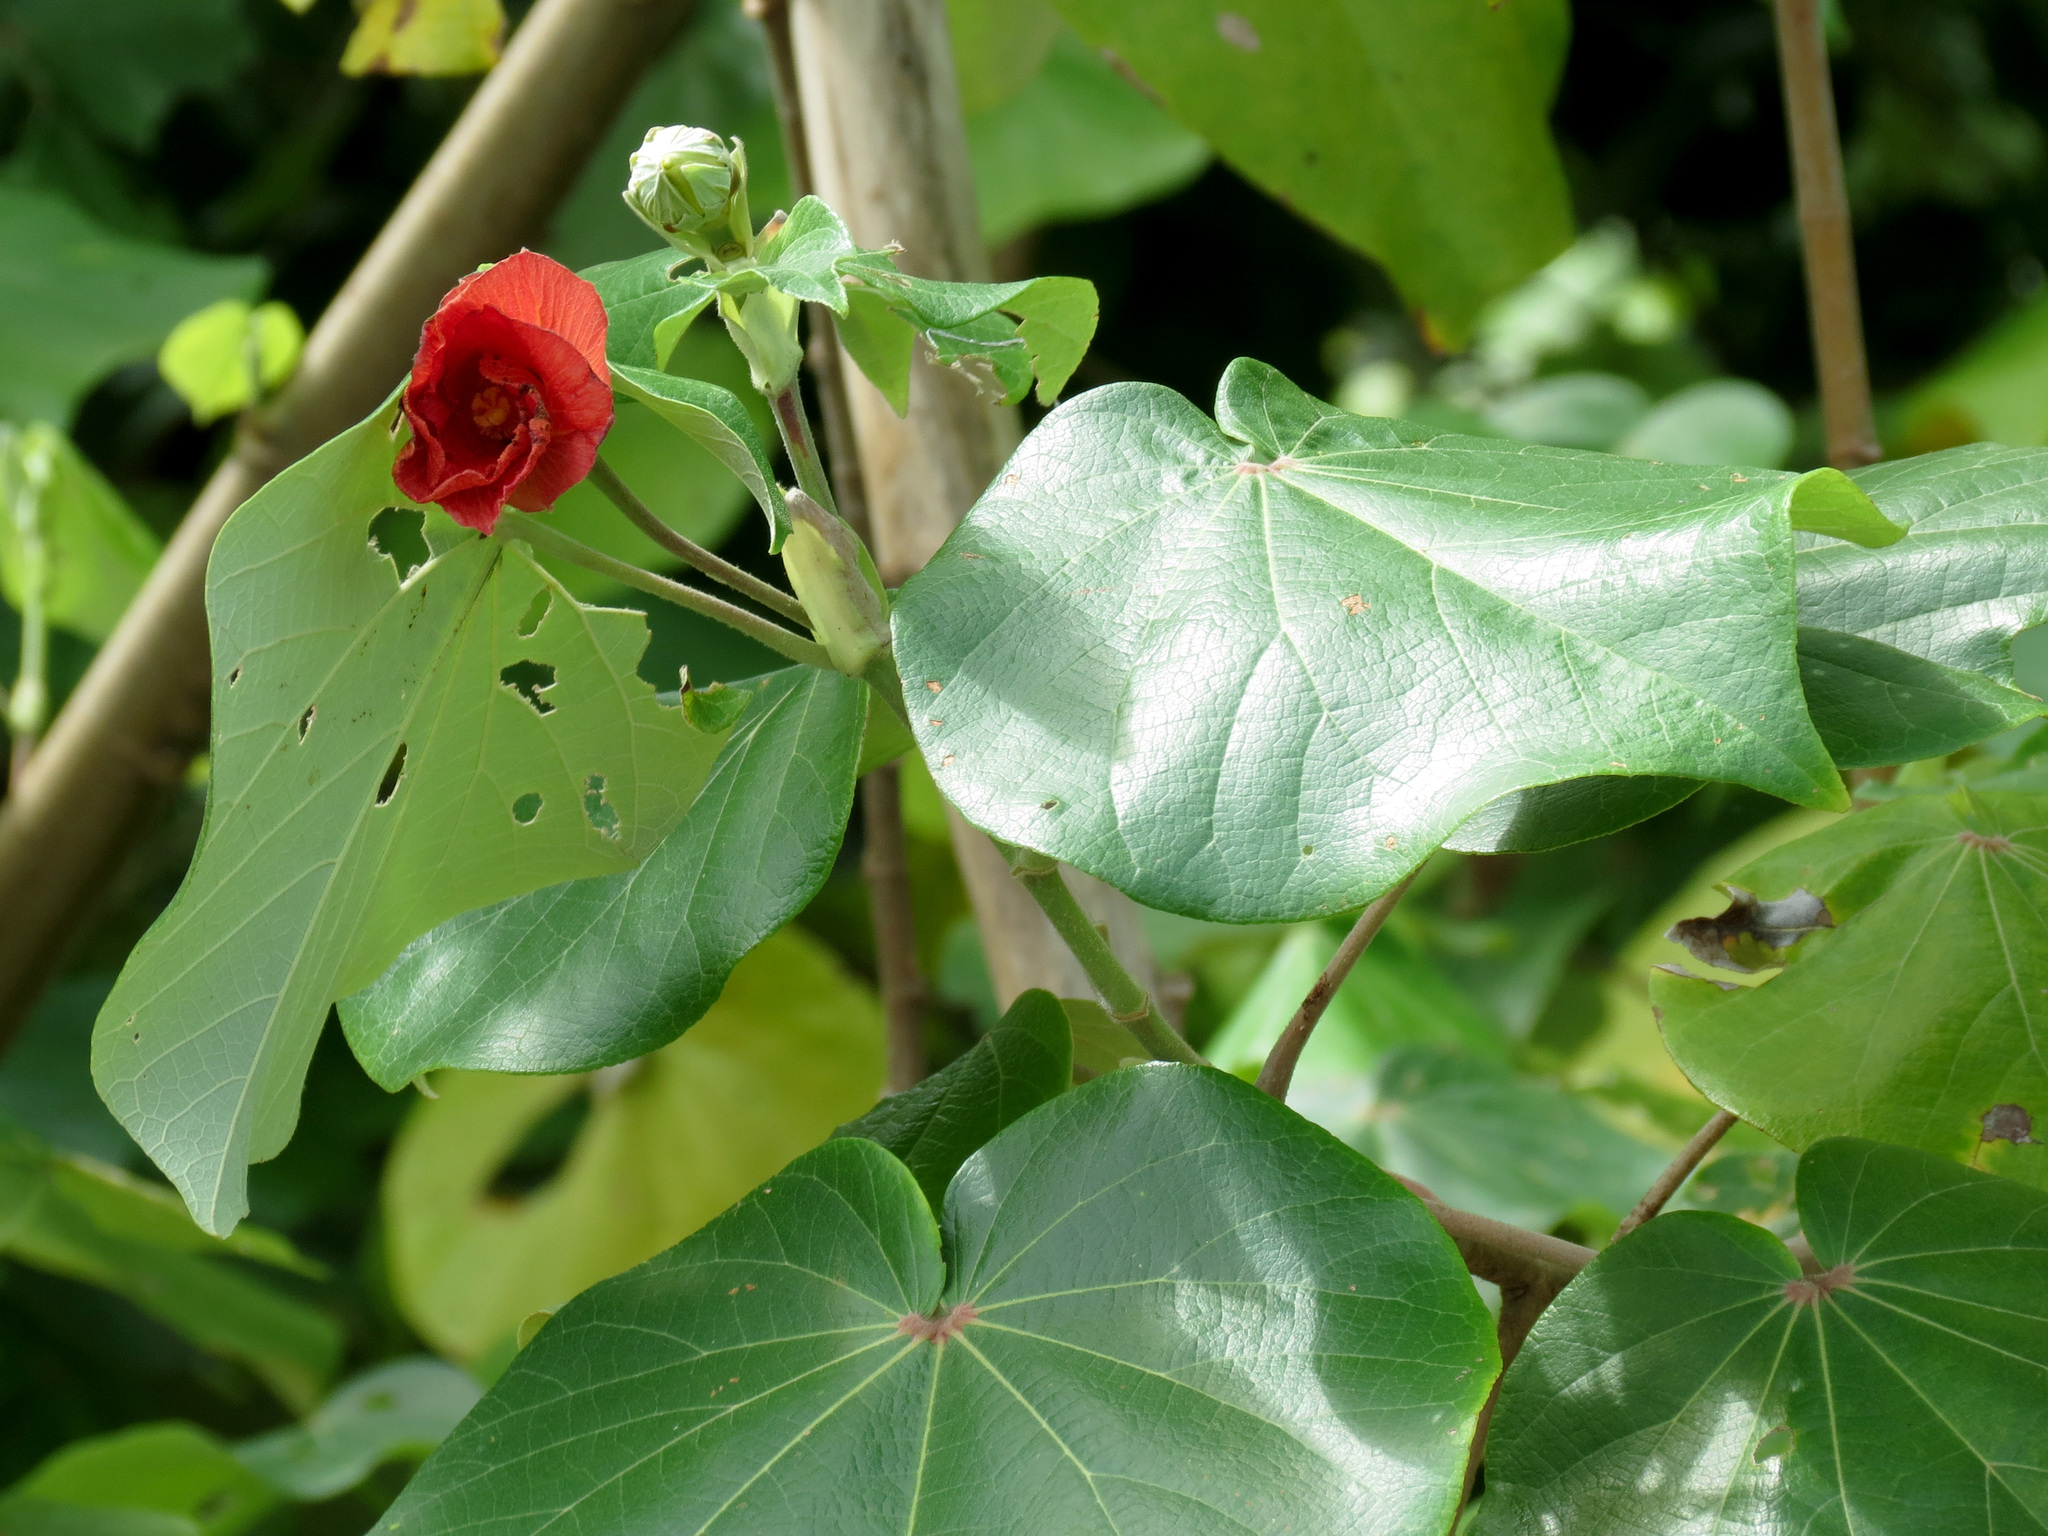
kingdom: Plantae
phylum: Tracheophyta
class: Magnoliopsida
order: Malvales
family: Malvaceae
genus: Thespesia
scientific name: Thespesia populnea
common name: Seaside mahoe
